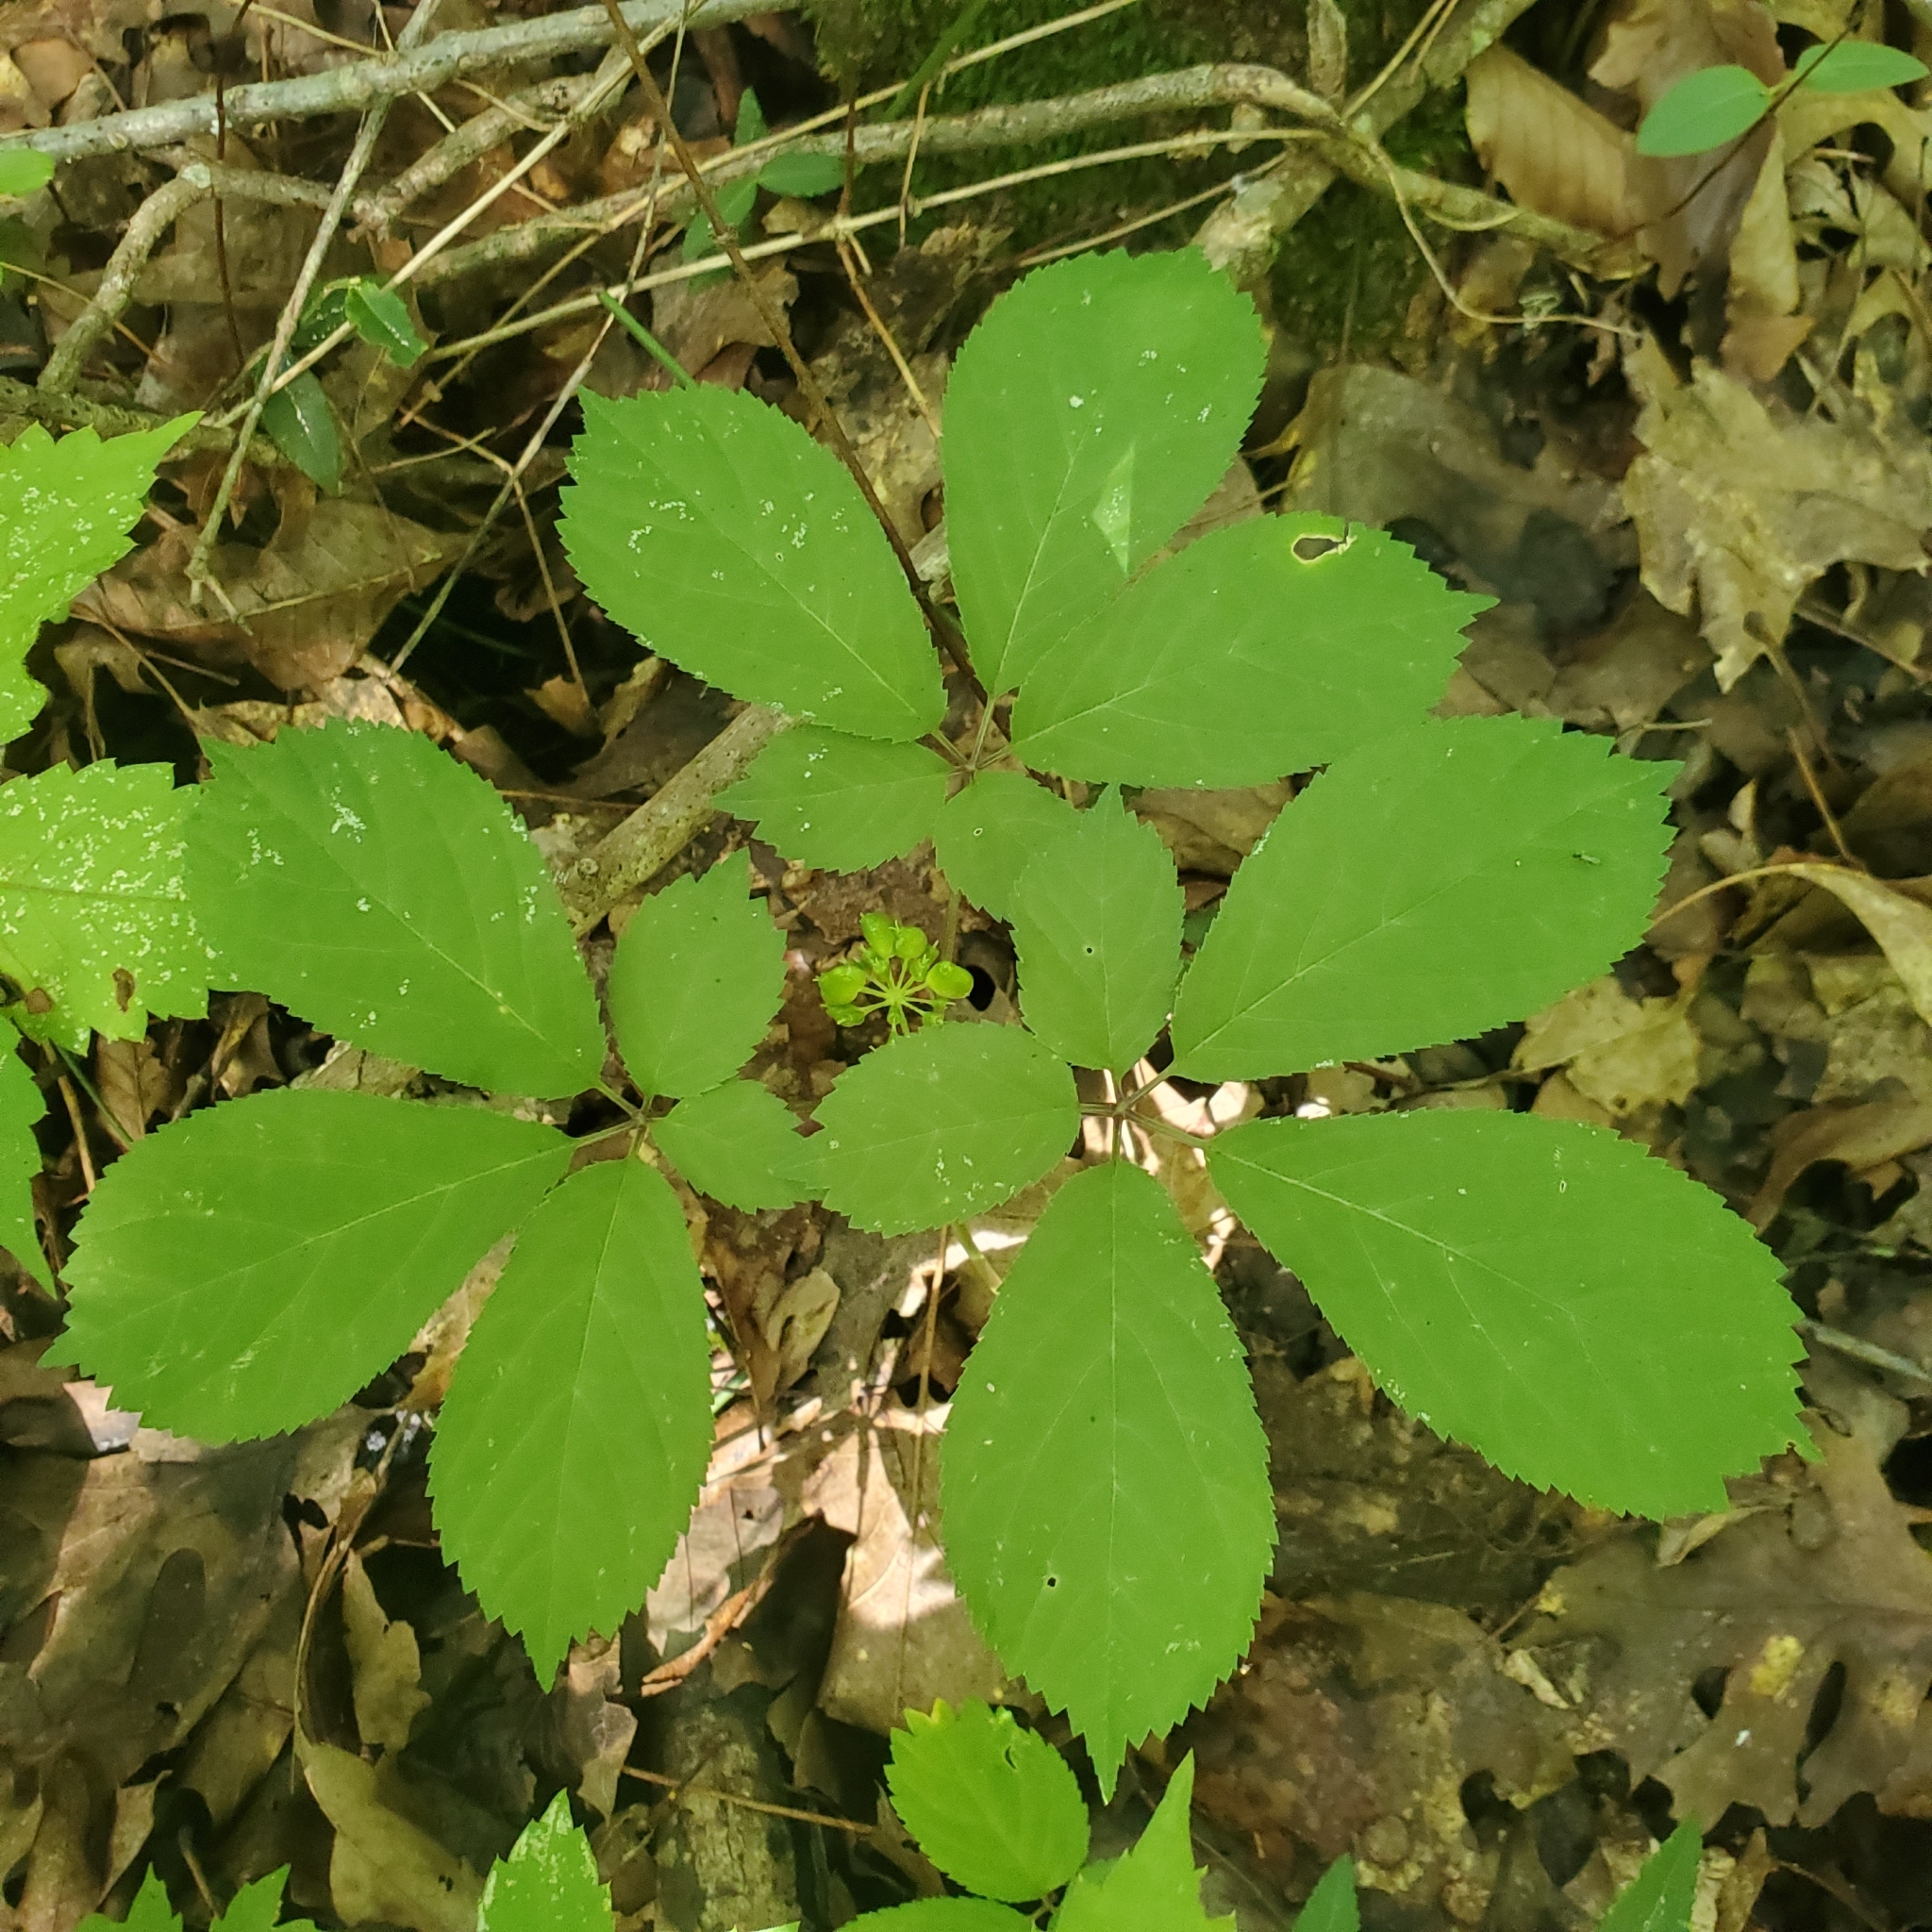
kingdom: Plantae
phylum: Tracheophyta
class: Magnoliopsida
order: Apiales
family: Araliaceae
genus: Panax
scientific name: Panax quinquefolius
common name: American ginseng
